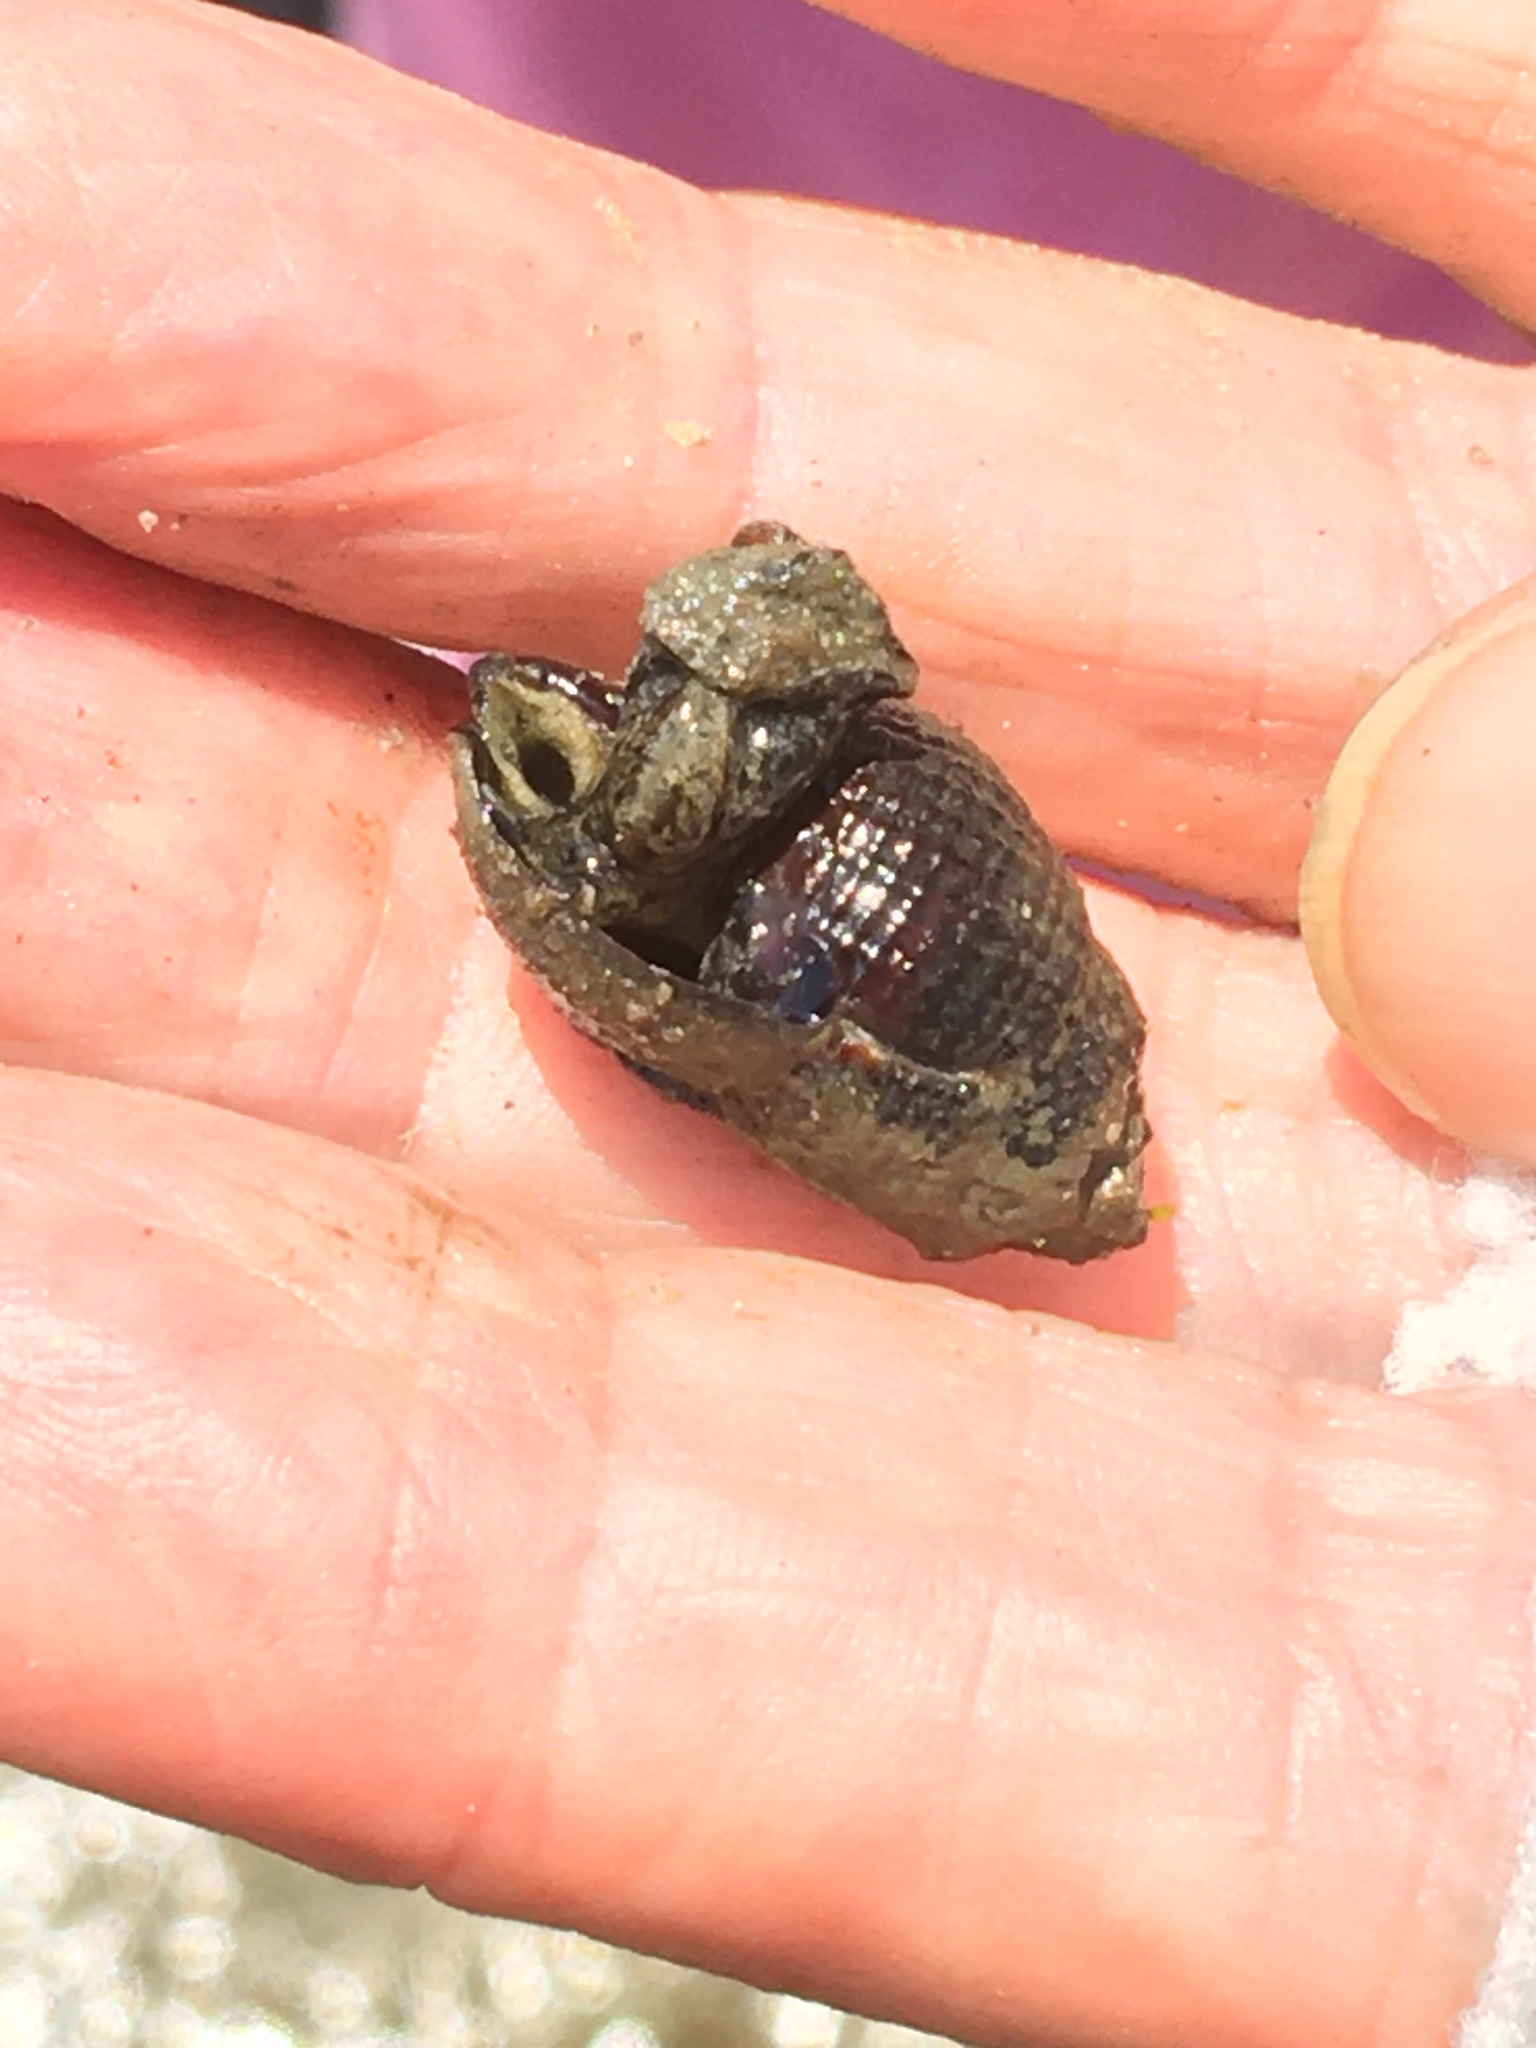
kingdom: Animalia
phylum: Mollusca
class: Gastropoda
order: Neogastropoda
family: Nassariidae
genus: Ilyanassa
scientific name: Ilyanassa obsoleta
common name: Eastern mudsnail
